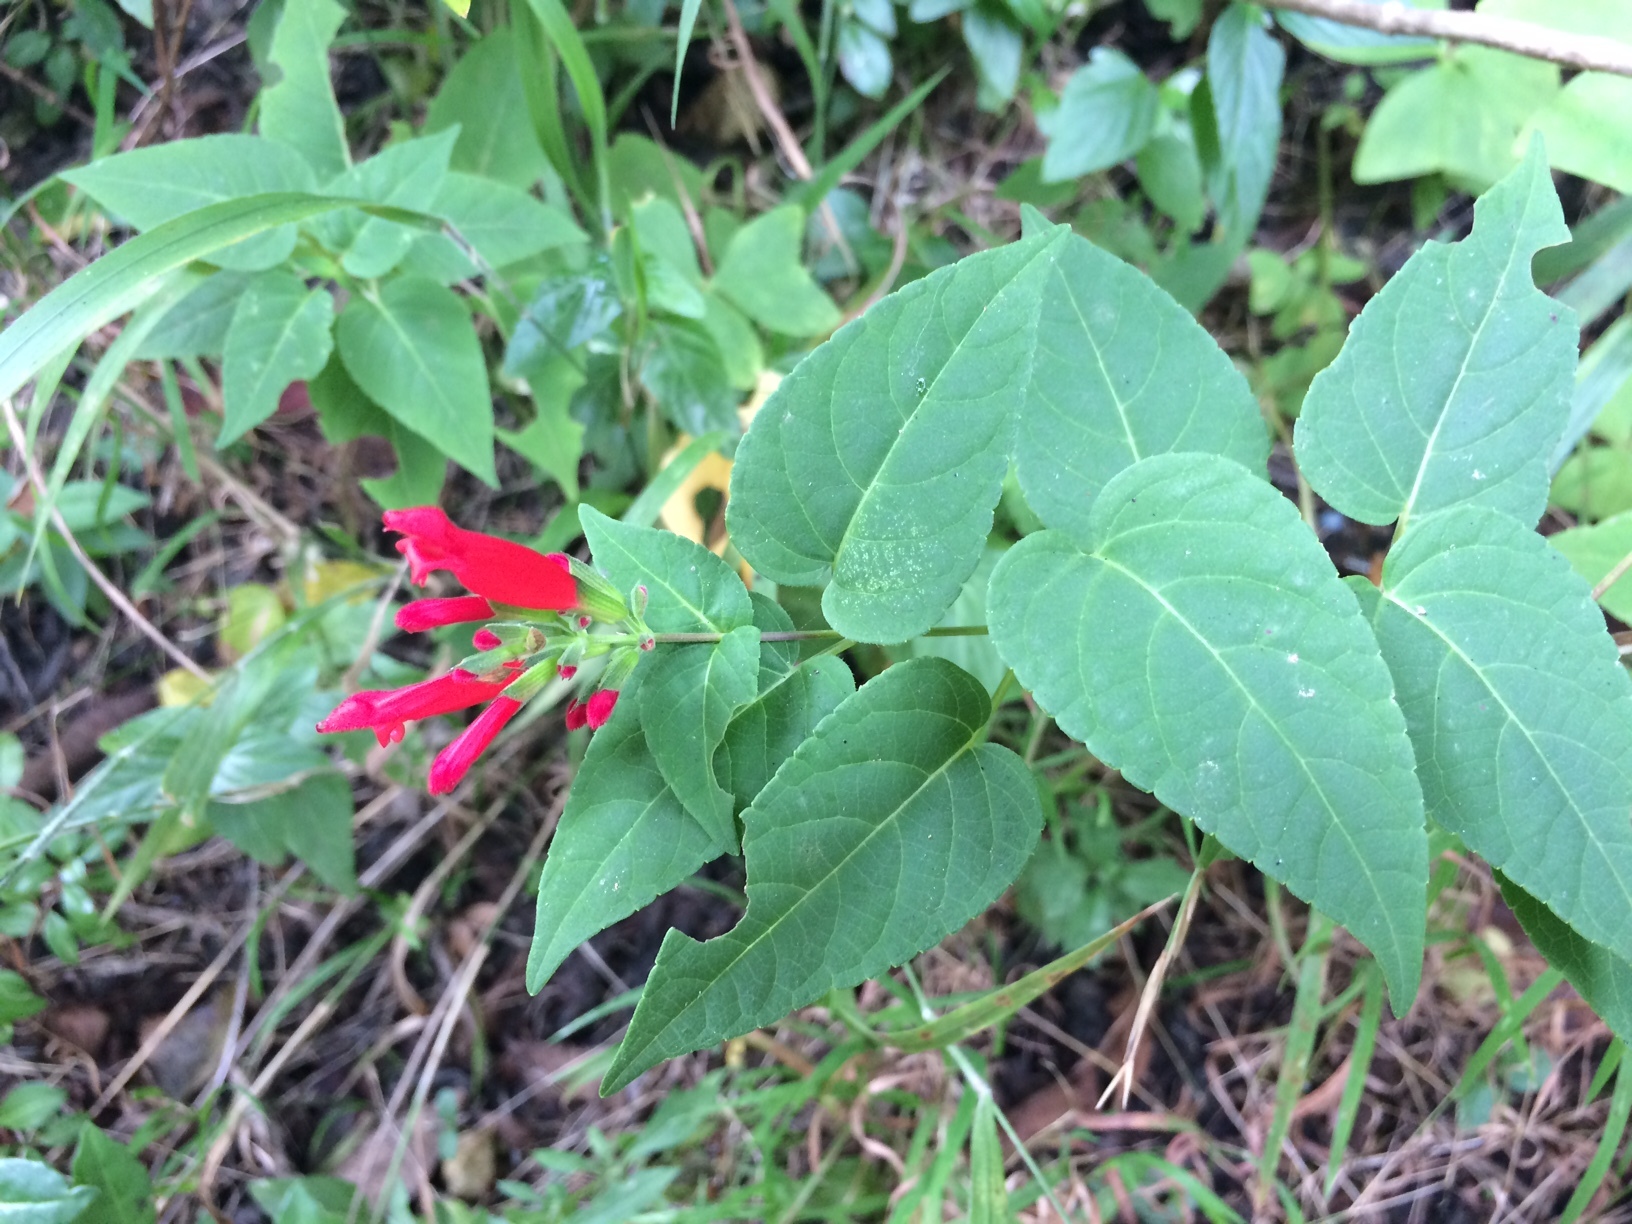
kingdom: Plantae
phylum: Tracheophyta
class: Magnoliopsida
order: Lamiales
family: Lamiaceae
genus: Salvia
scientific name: Salvia holwayi
